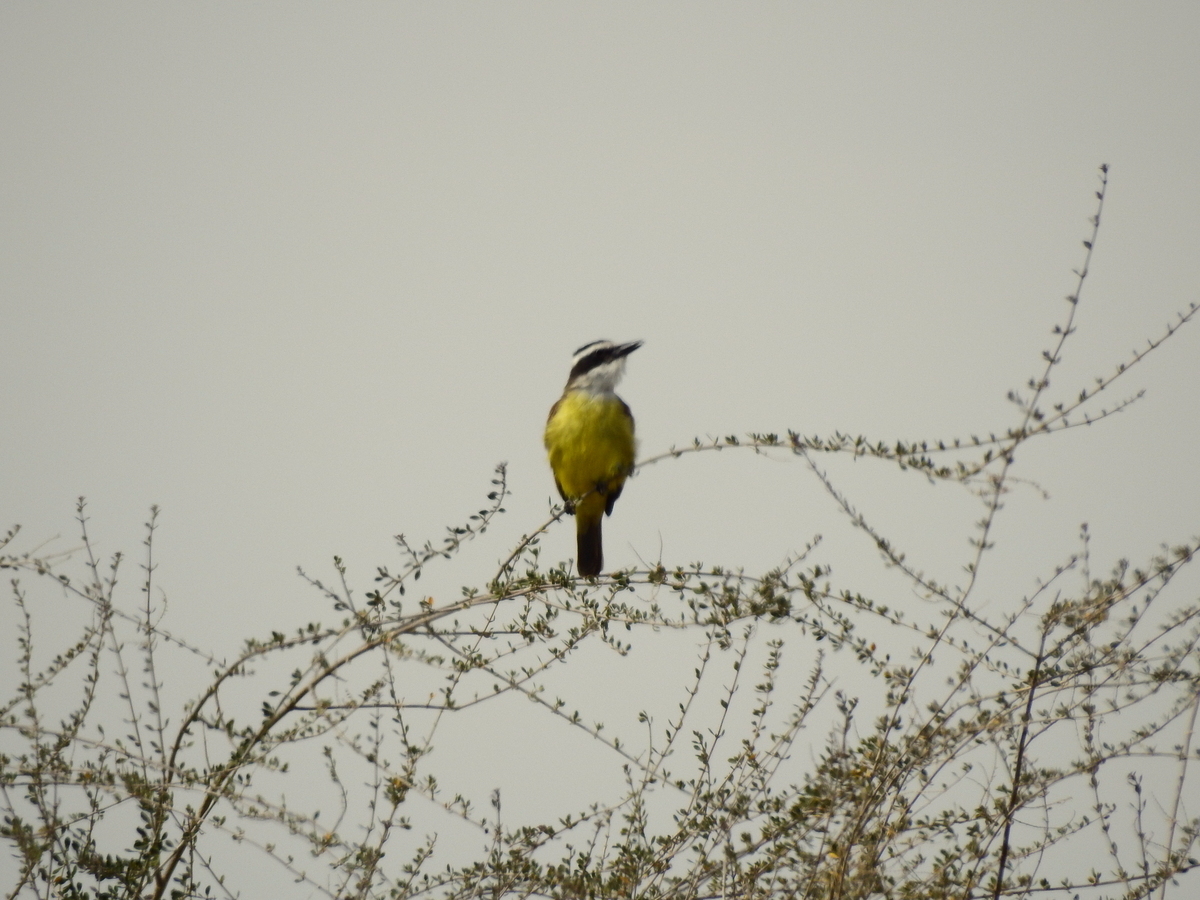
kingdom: Animalia
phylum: Chordata
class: Aves
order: Passeriformes
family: Tyrannidae
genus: Pitangus
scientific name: Pitangus sulphuratus
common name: Great kiskadee
